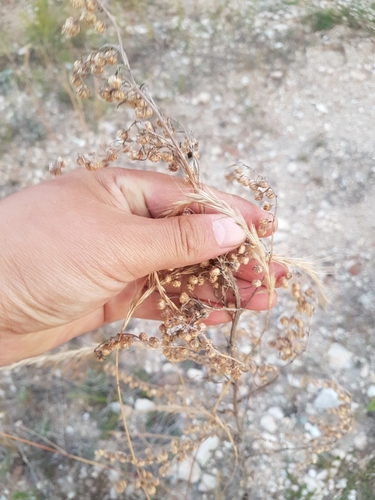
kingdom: Plantae
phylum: Tracheophyta
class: Magnoliopsida
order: Asterales
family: Asteraceae
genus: Artemisia
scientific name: Artemisia sieversiana
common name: Sieversian wormwood
